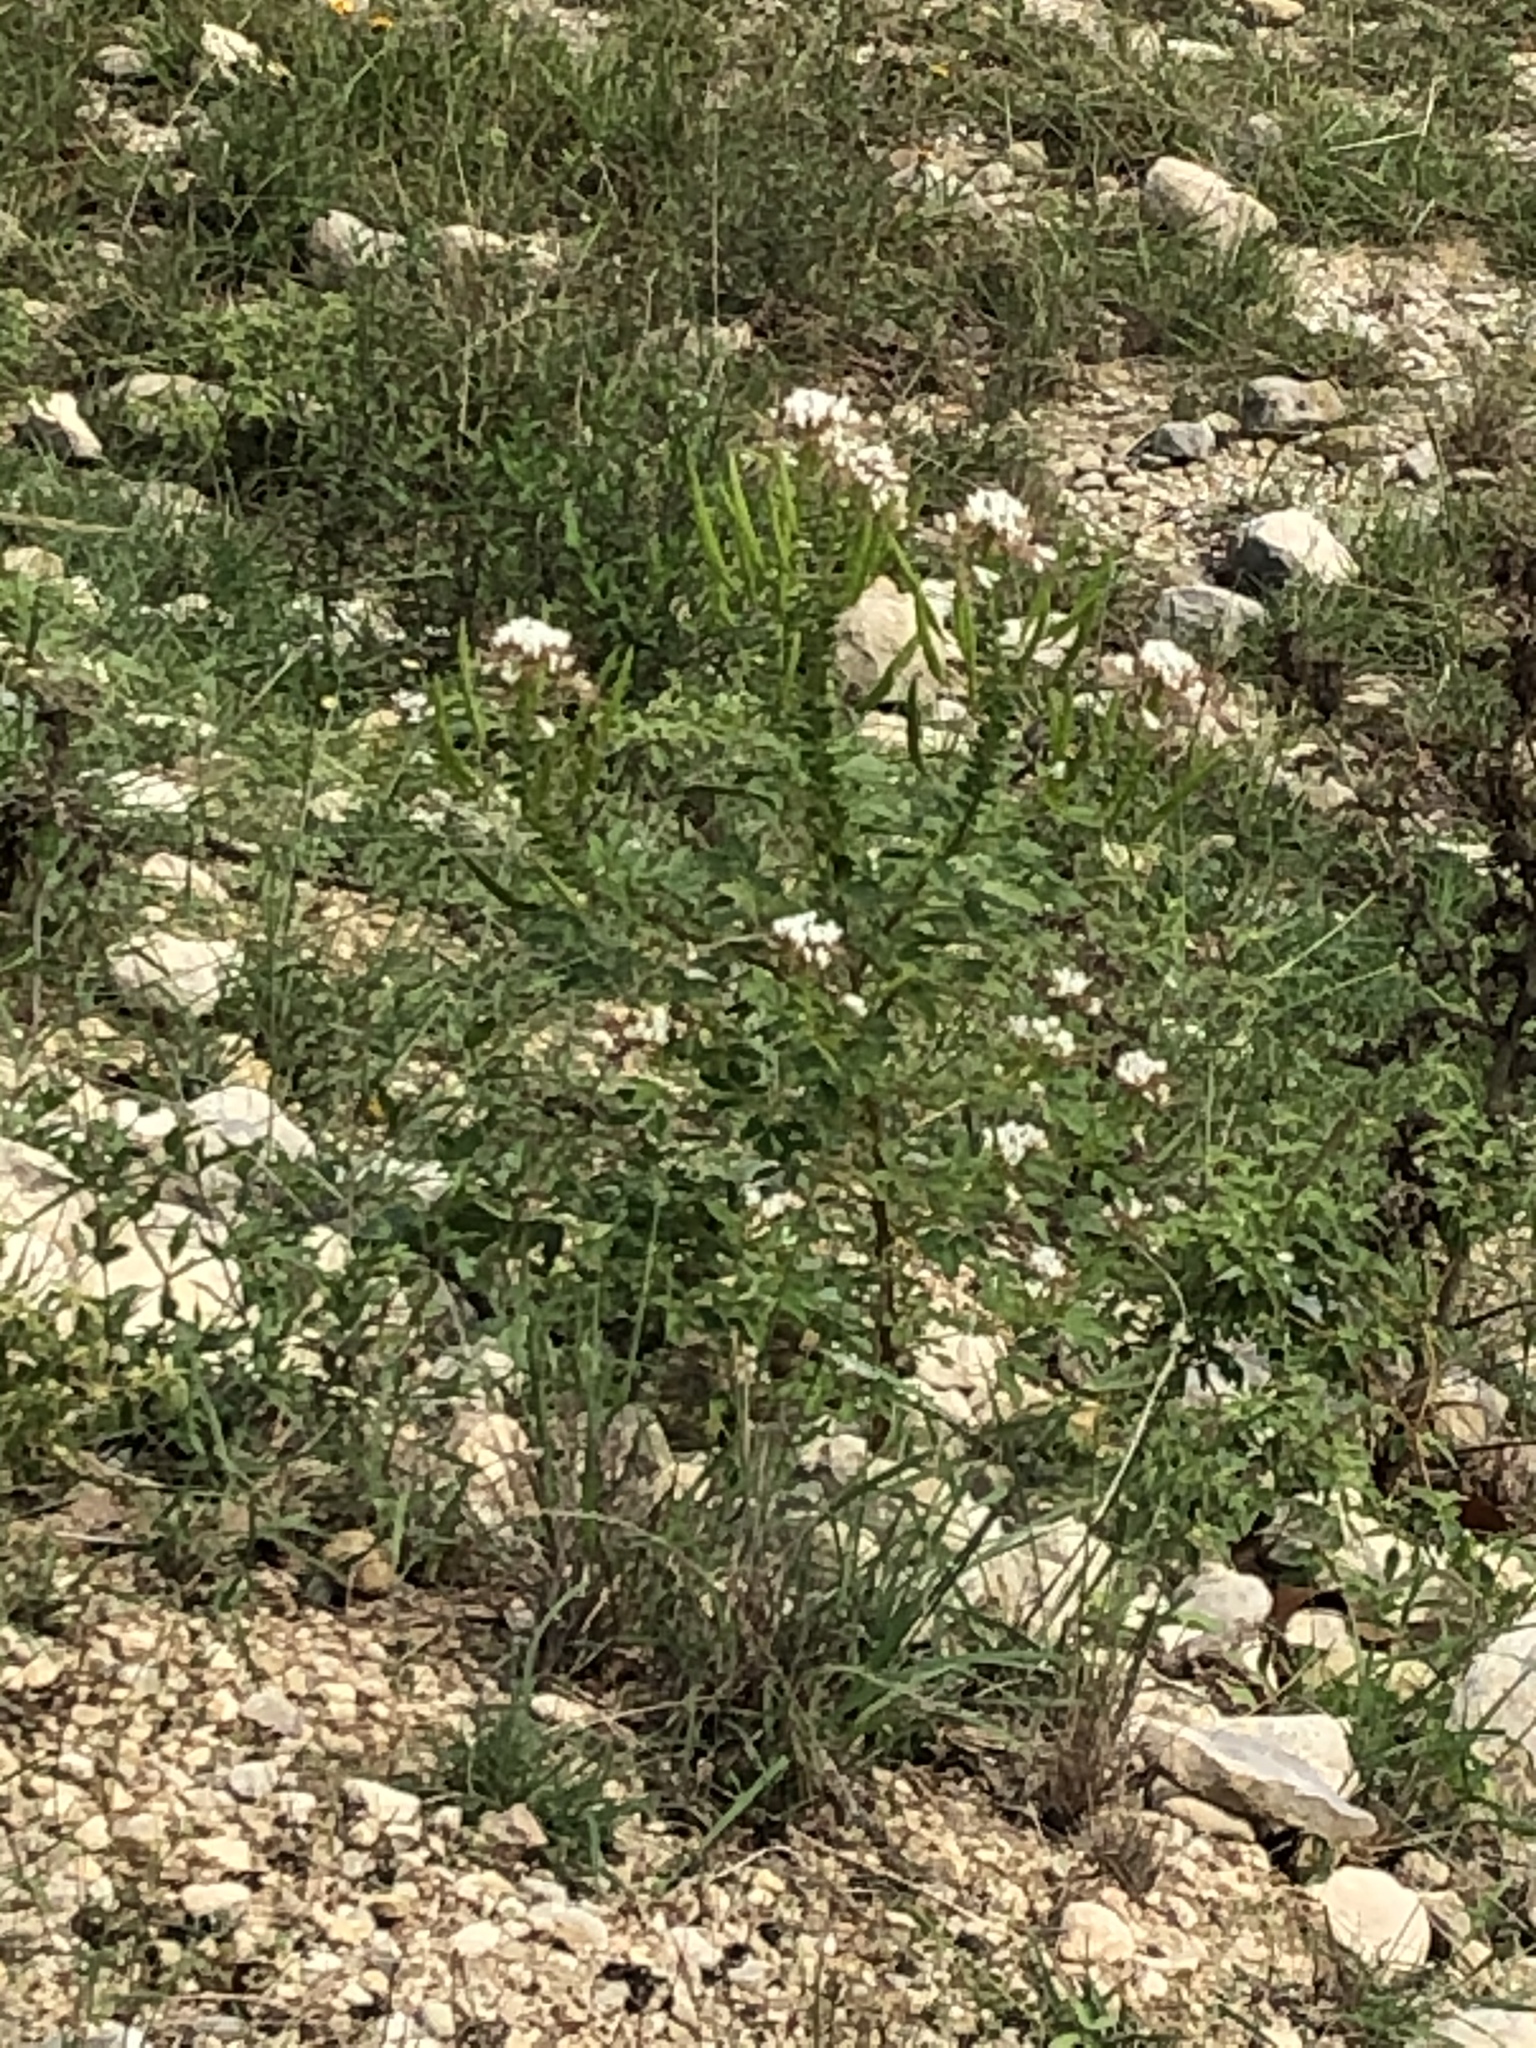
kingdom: Plantae
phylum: Tracheophyta
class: Magnoliopsida
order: Brassicales
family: Cleomaceae
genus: Polanisia
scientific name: Polanisia dodecandra
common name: Clammyweed
